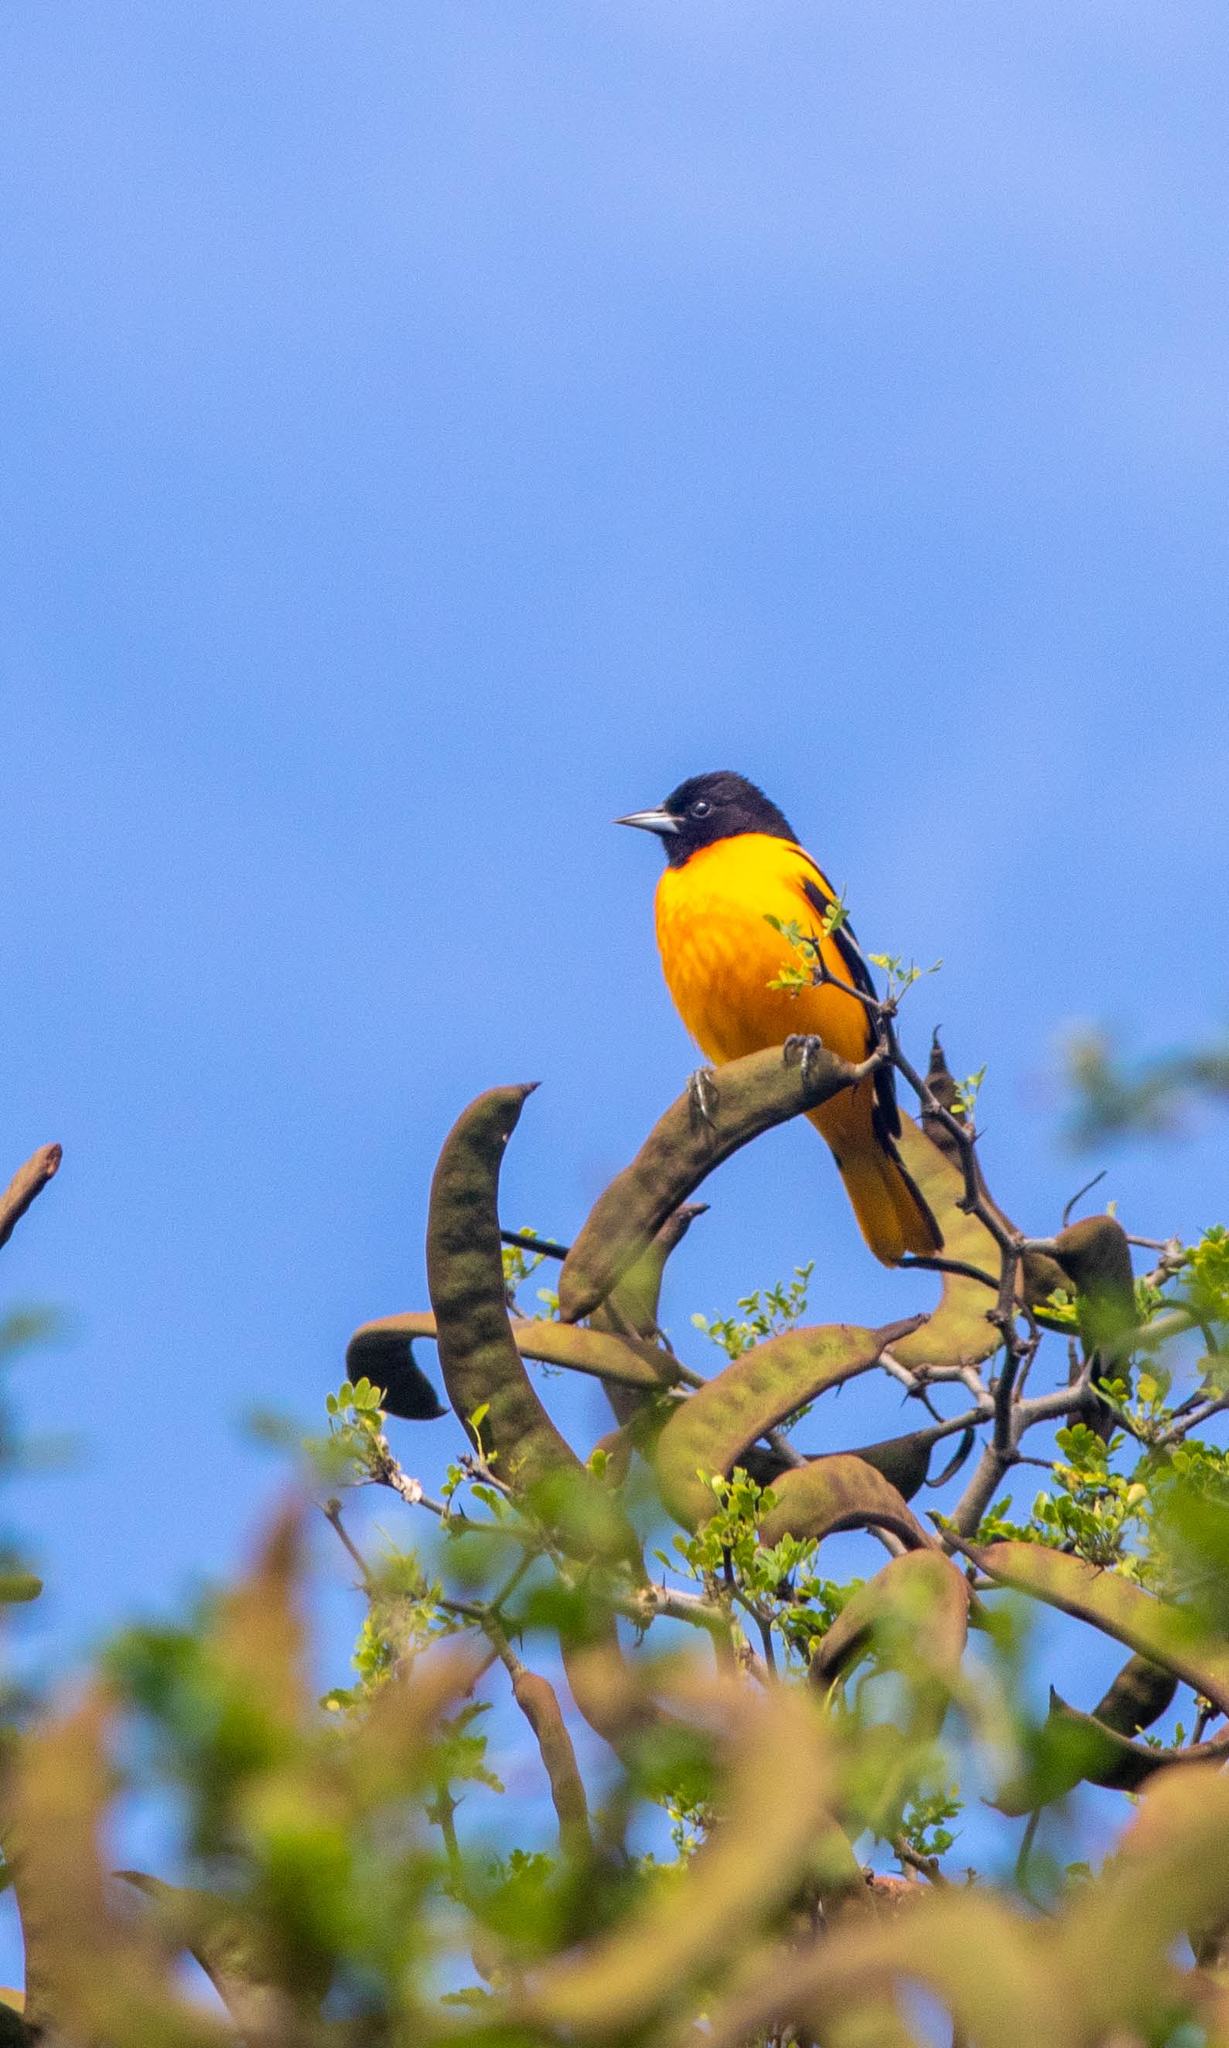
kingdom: Animalia
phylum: Chordata
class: Aves
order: Passeriformes
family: Icteridae
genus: Icterus
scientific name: Icterus galbula
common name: Baltimore oriole
